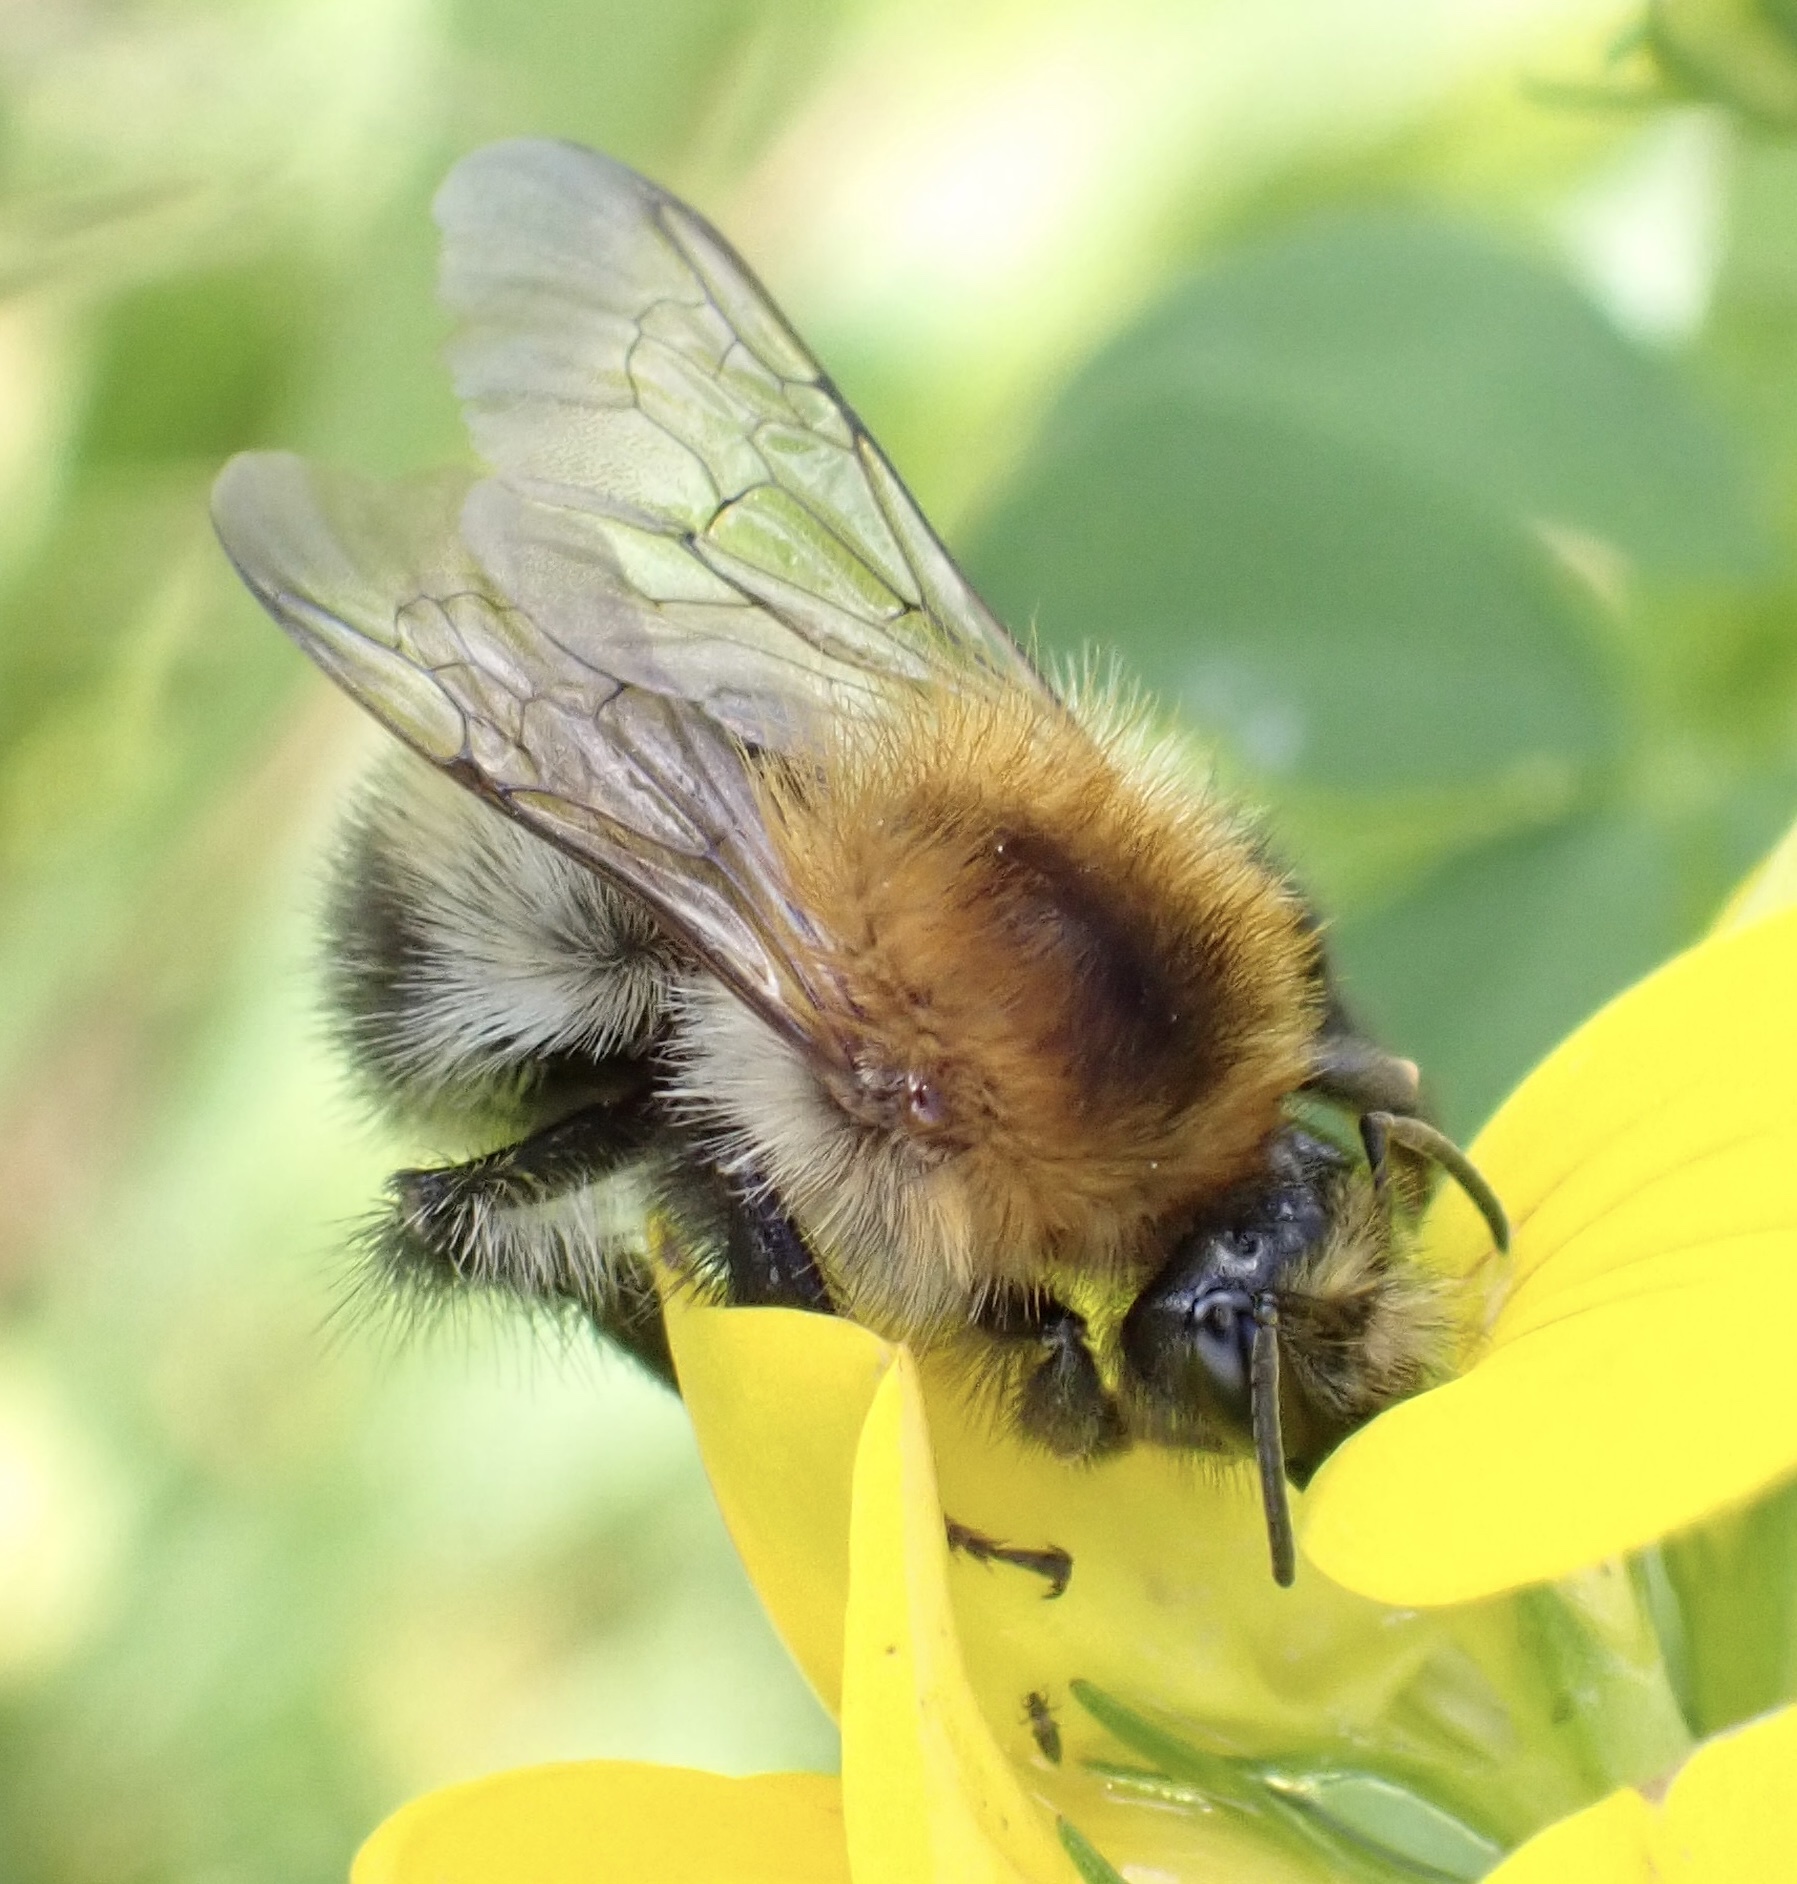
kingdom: Animalia
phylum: Arthropoda
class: Insecta
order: Hymenoptera
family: Apidae
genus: Bombus
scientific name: Bombus pascuorum
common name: Common carder bee
